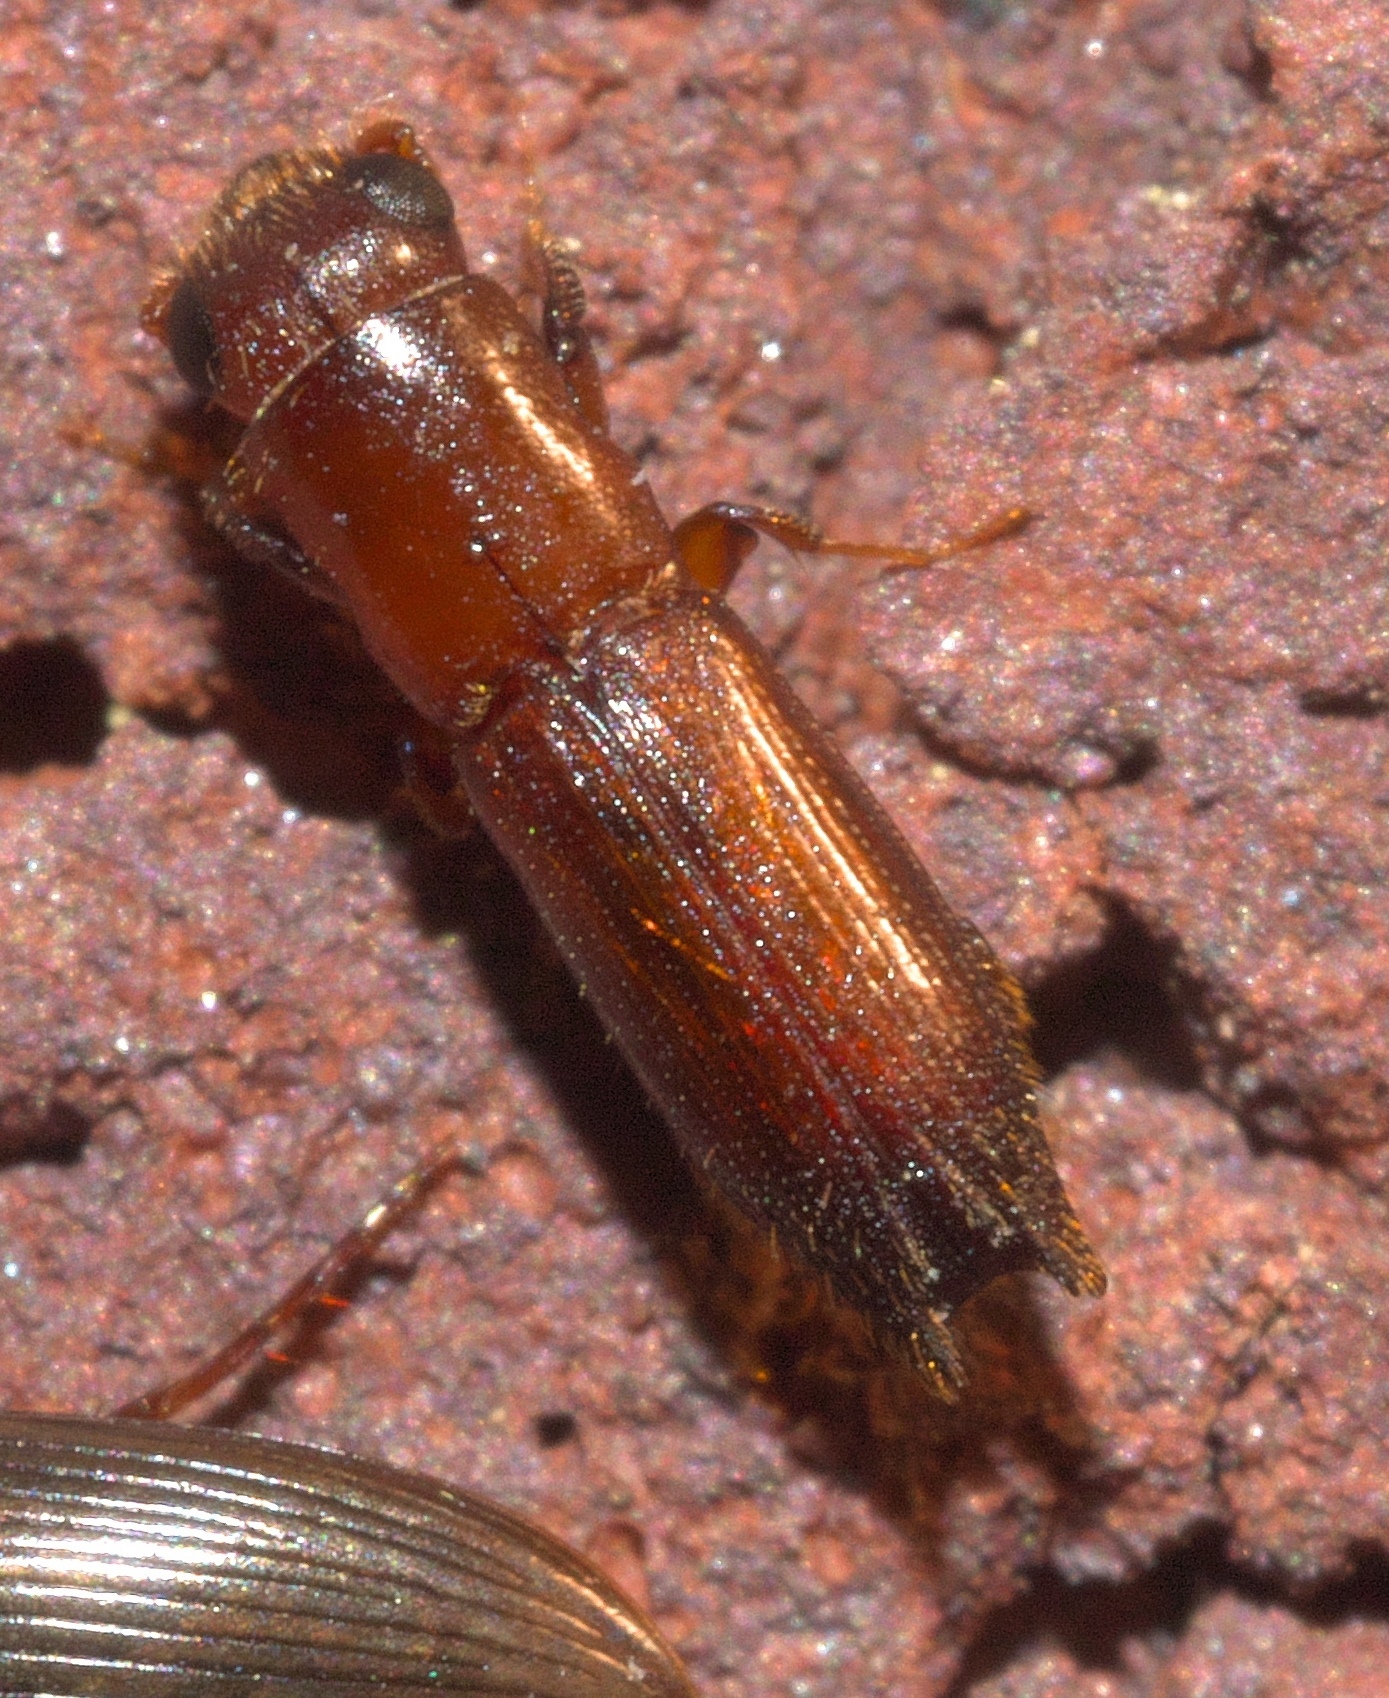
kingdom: Animalia
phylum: Arthropoda
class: Insecta
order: Coleoptera
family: Curculionidae
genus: Euplatypus
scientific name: Euplatypus compositus
